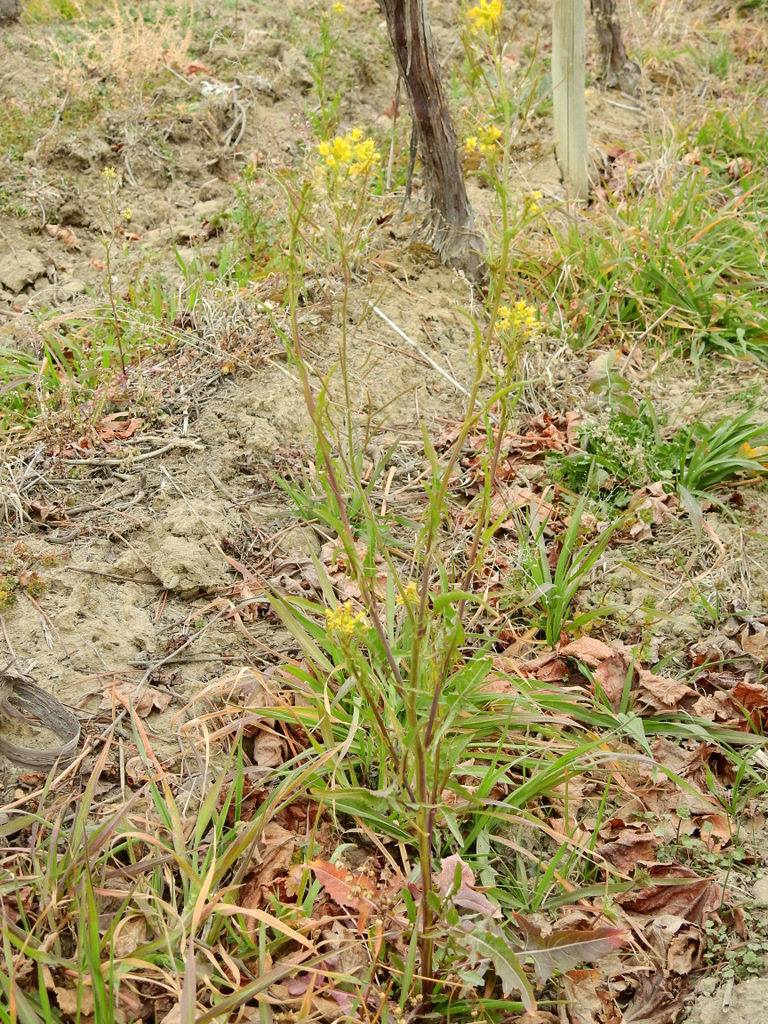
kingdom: Plantae
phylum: Tracheophyta
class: Magnoliopsida
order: Brassicales
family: Brassicaceae
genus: Sisymbrium
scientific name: Sisymbrium irio
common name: London rocket
